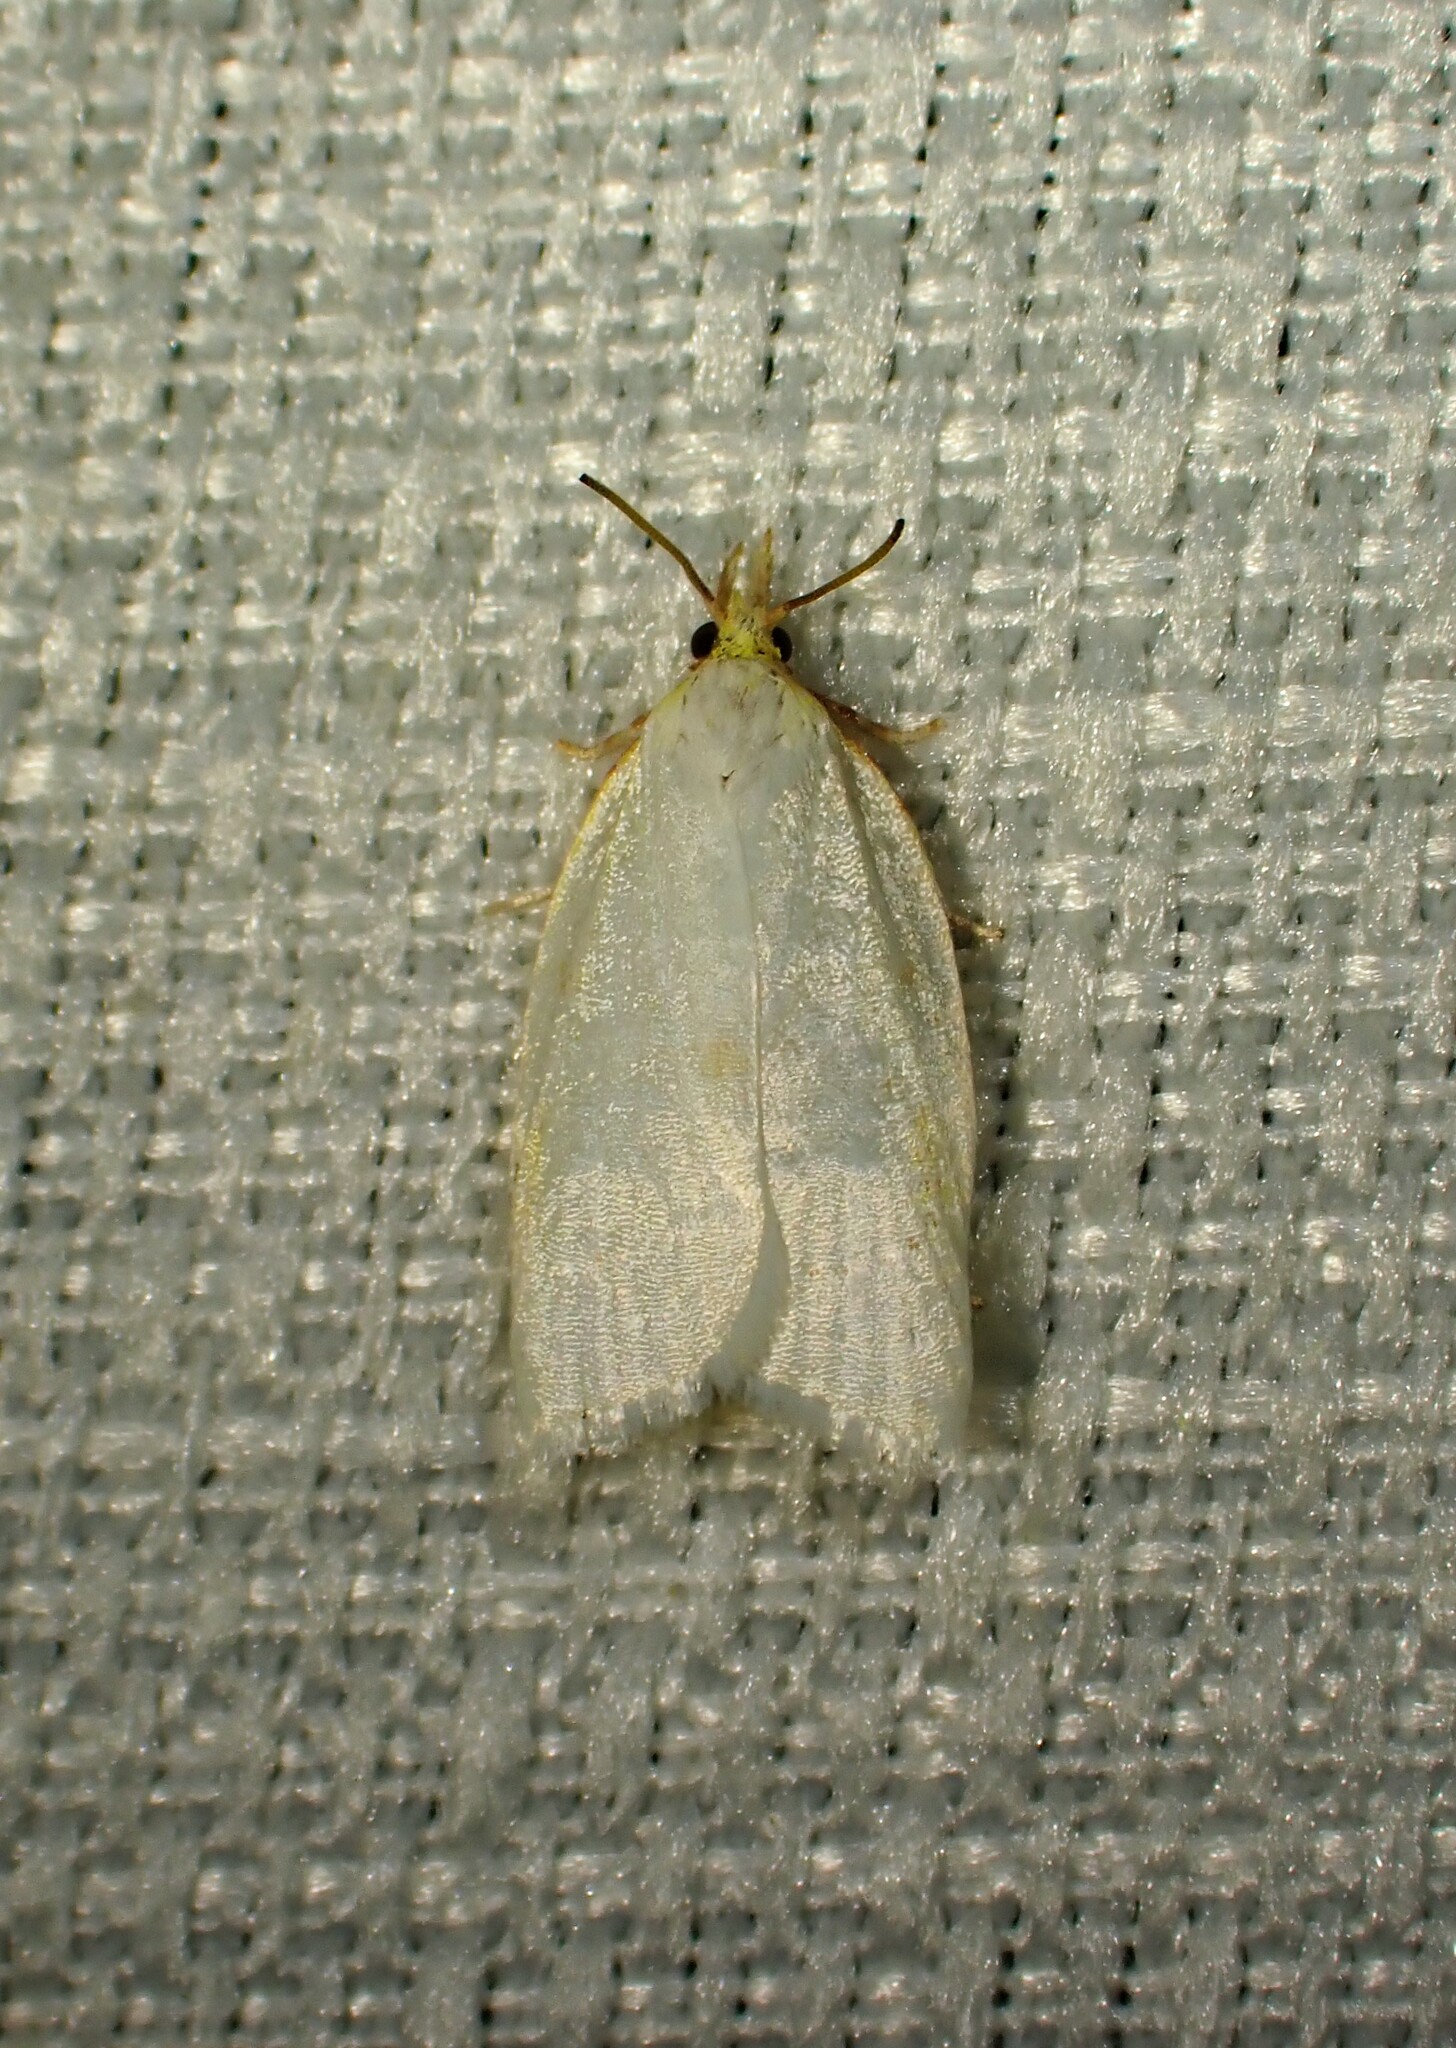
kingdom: Animalia
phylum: Arthropoda
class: Insecta
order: Lepidoptera
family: Tortricidae
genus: Cenopis
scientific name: Cenopis pettitana
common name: Maple-basswood leafroller moth
